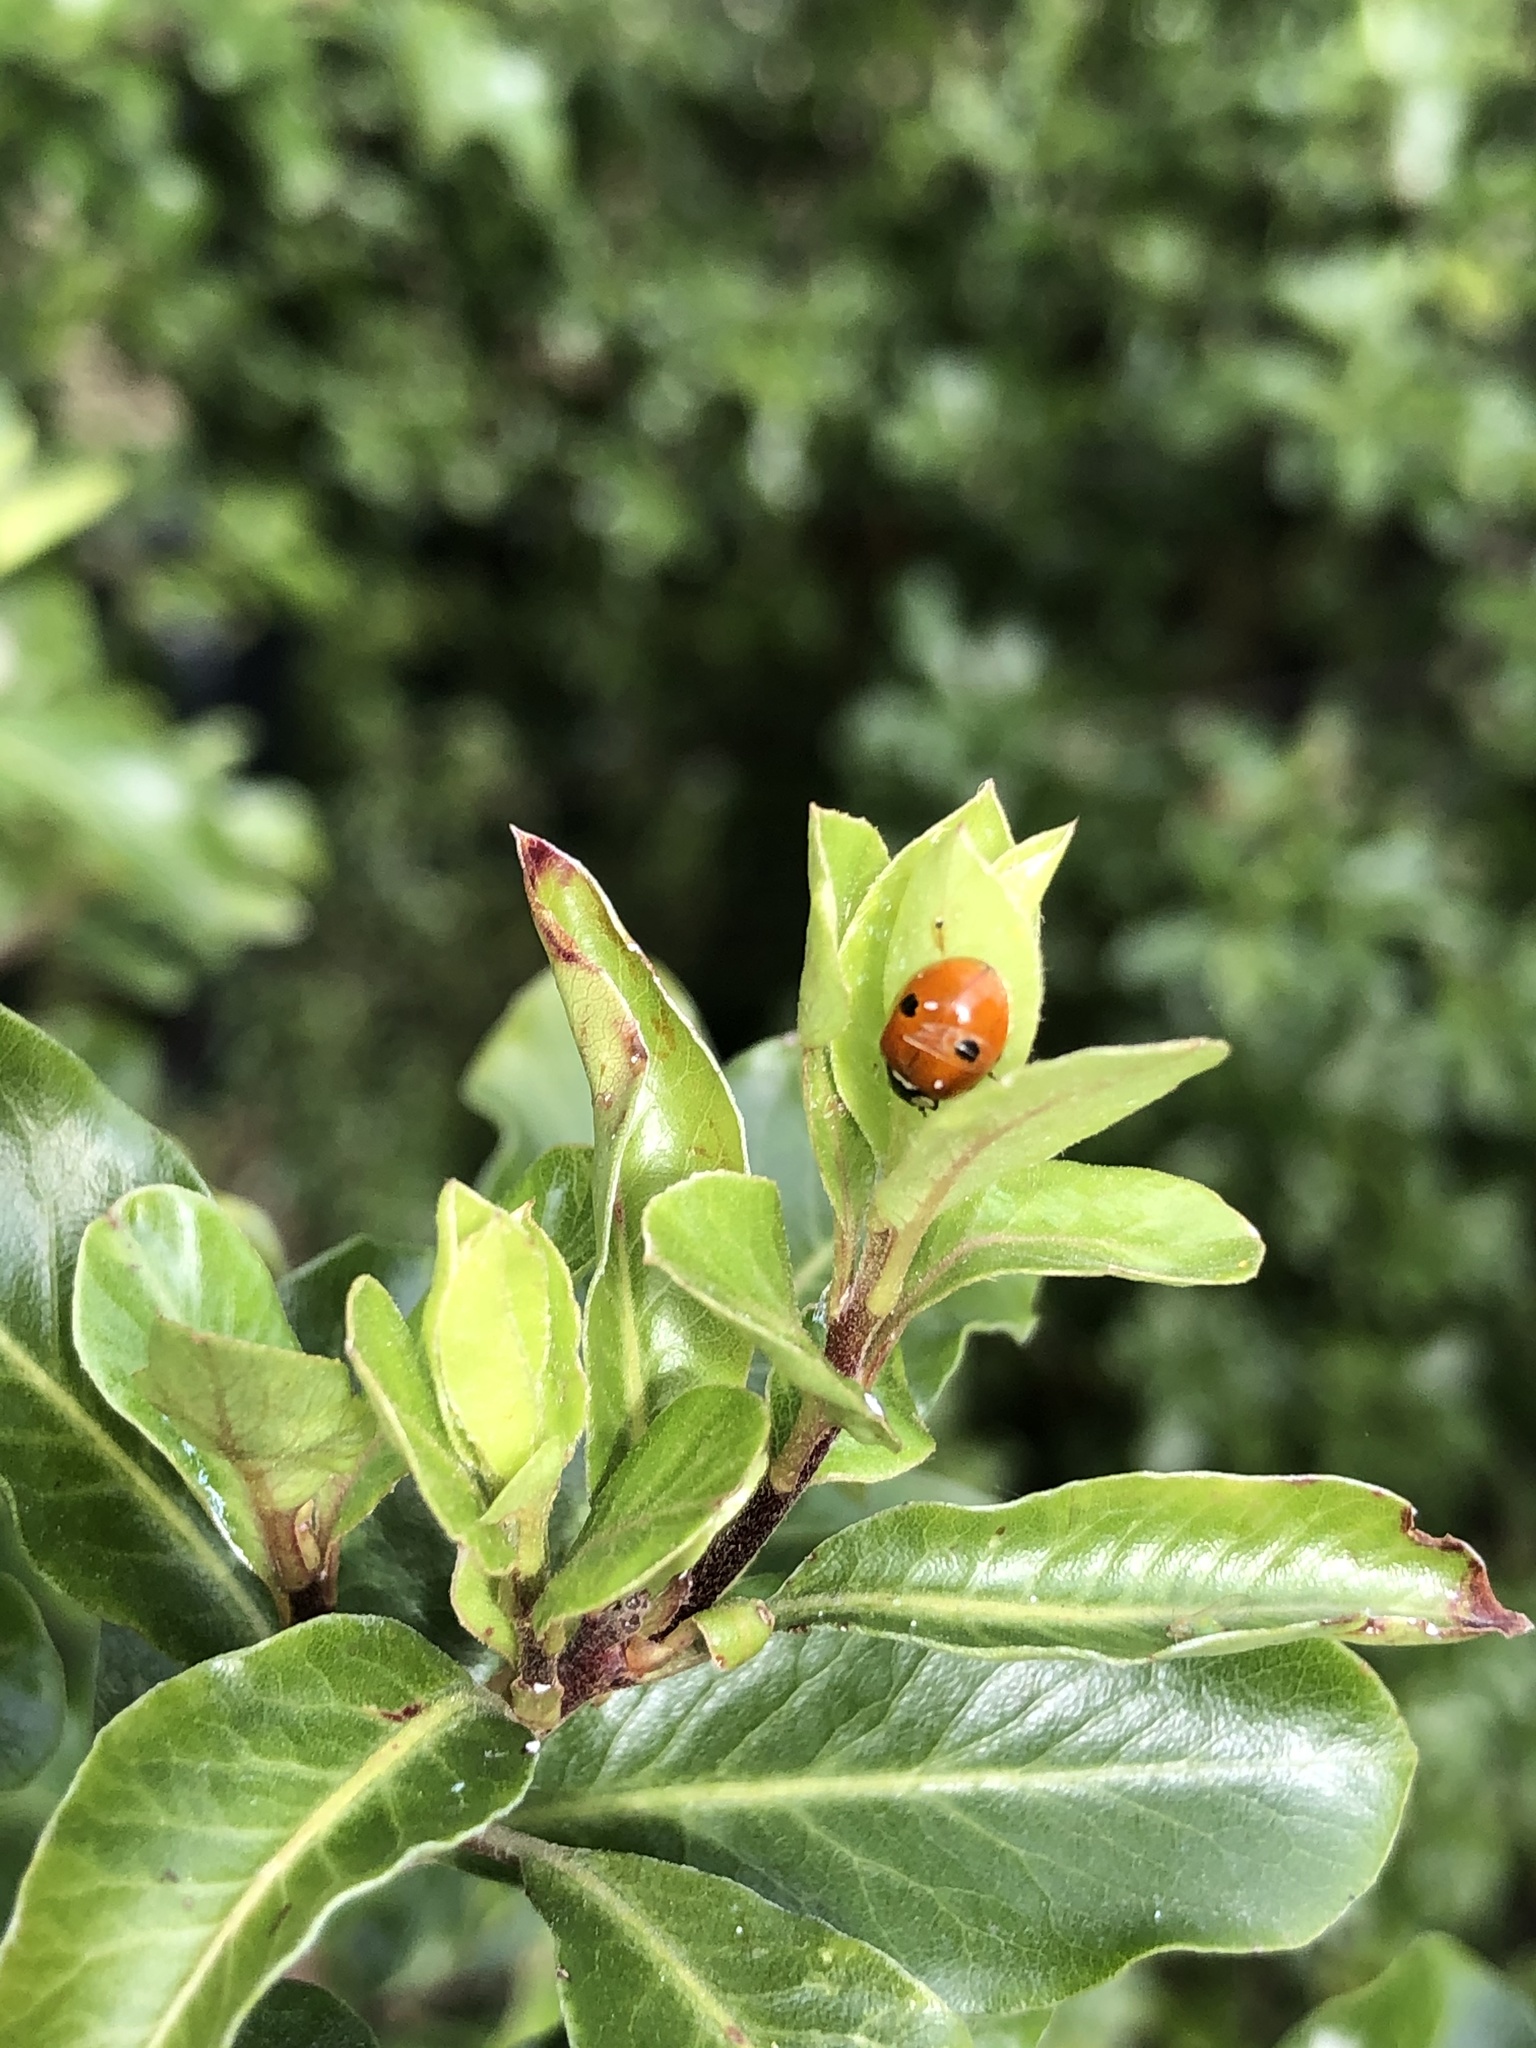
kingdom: Animalia
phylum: Arthropoda
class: Insecta
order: Coleoptera
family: Coccinellidae
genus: Adalia
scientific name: Adalia bipunctata
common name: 2-spot ladybird
